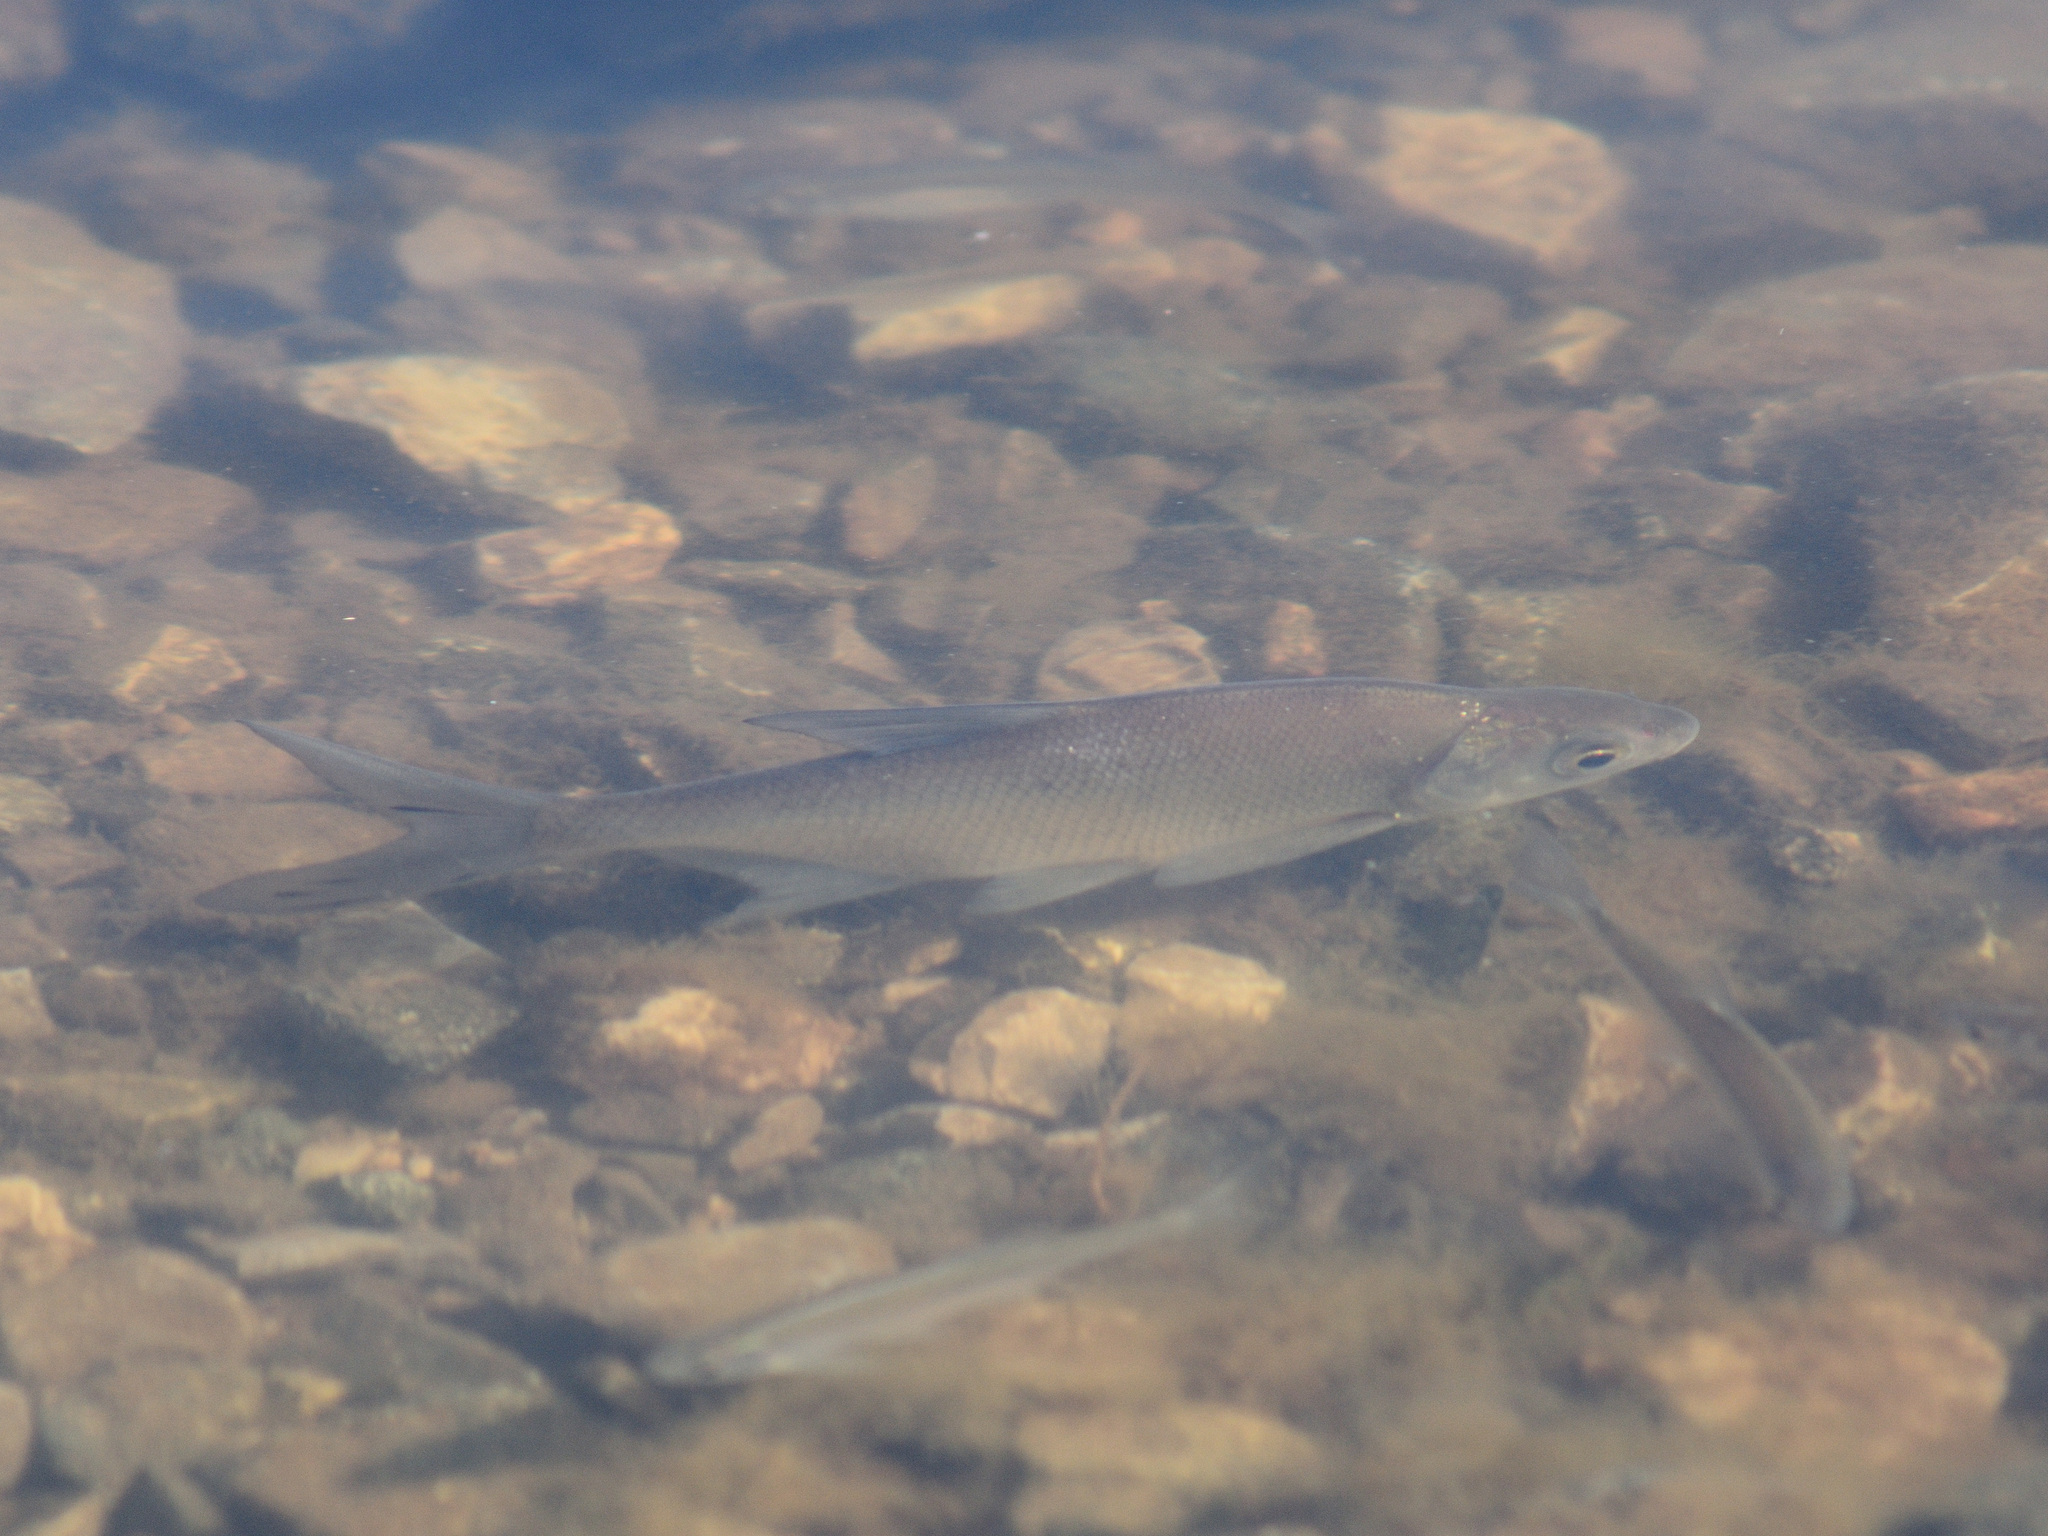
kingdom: Animalia
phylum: Chordata
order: Cypriniformes
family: Cyprinidae
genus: Abramis
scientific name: Abramis brama
